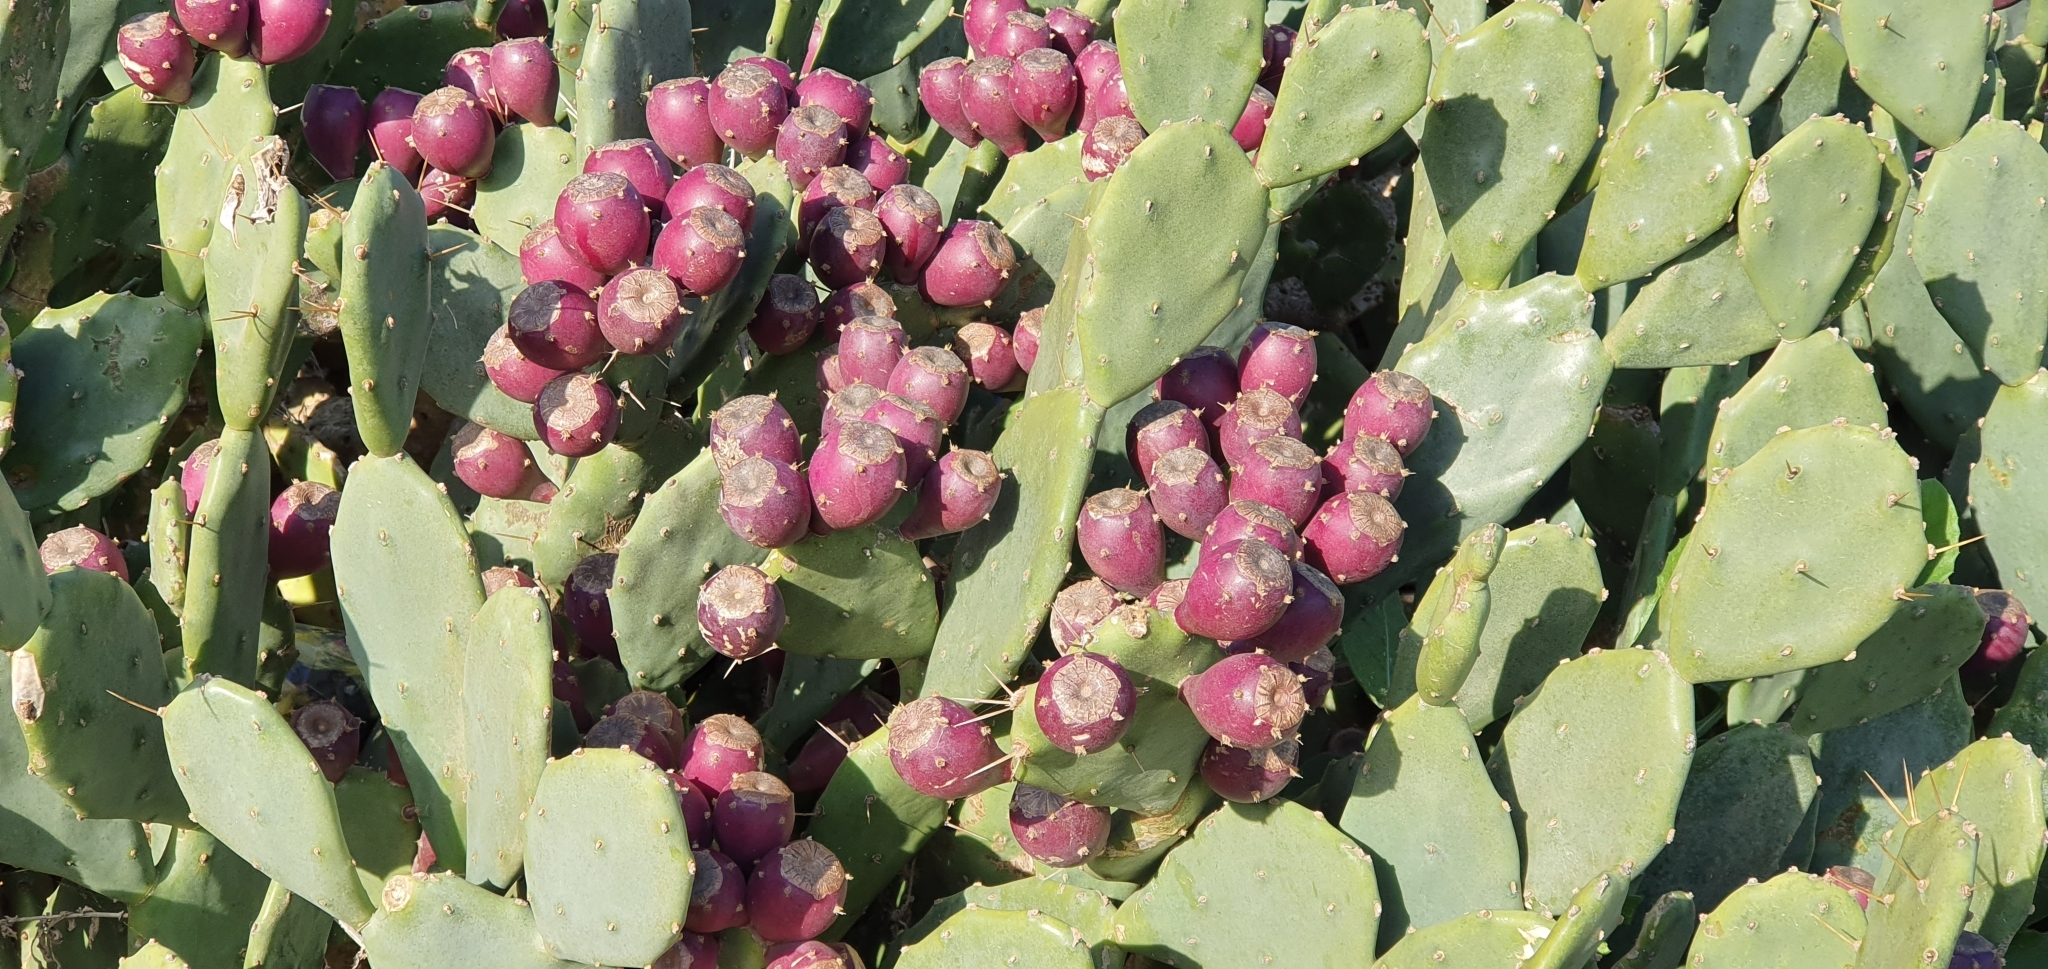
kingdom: Plantae
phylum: Tracheophyta
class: Magnoliopsida
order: Caryophyllales
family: Cactaceae
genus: Opuntia
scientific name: Opuntia stricta
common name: Erect pricklypear
